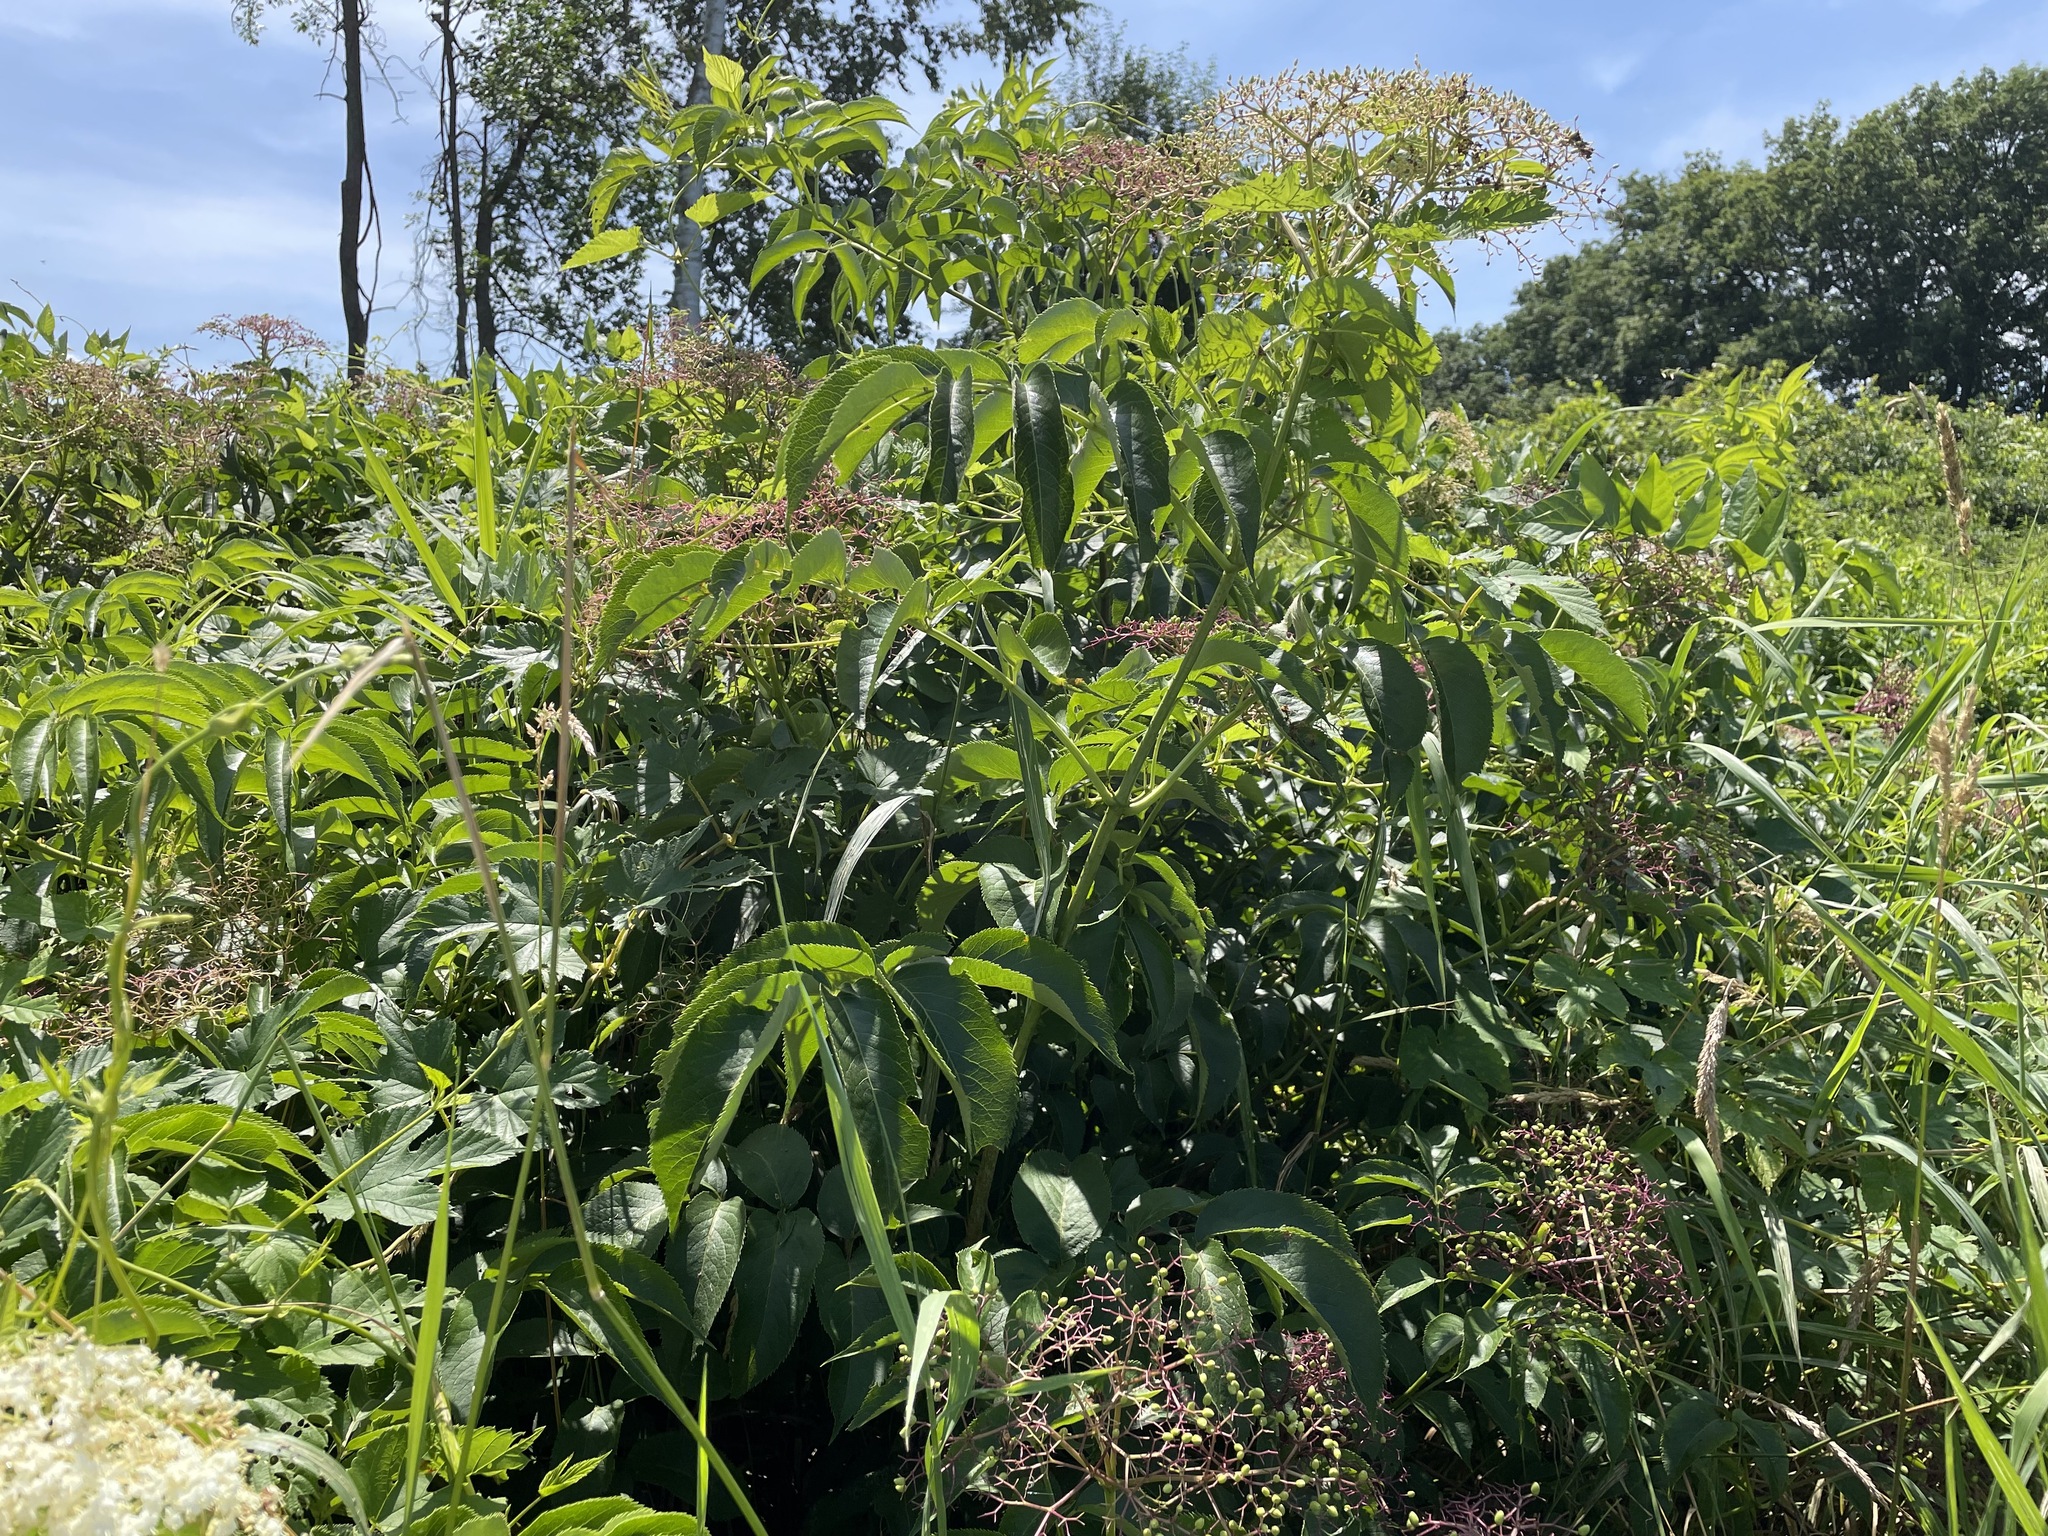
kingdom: Plantae
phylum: Tracheophyta
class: Magnoliopsida
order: Dipsacales
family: Viburnaceae
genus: Sambucus
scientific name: Sambucus canadensis
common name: American elder
